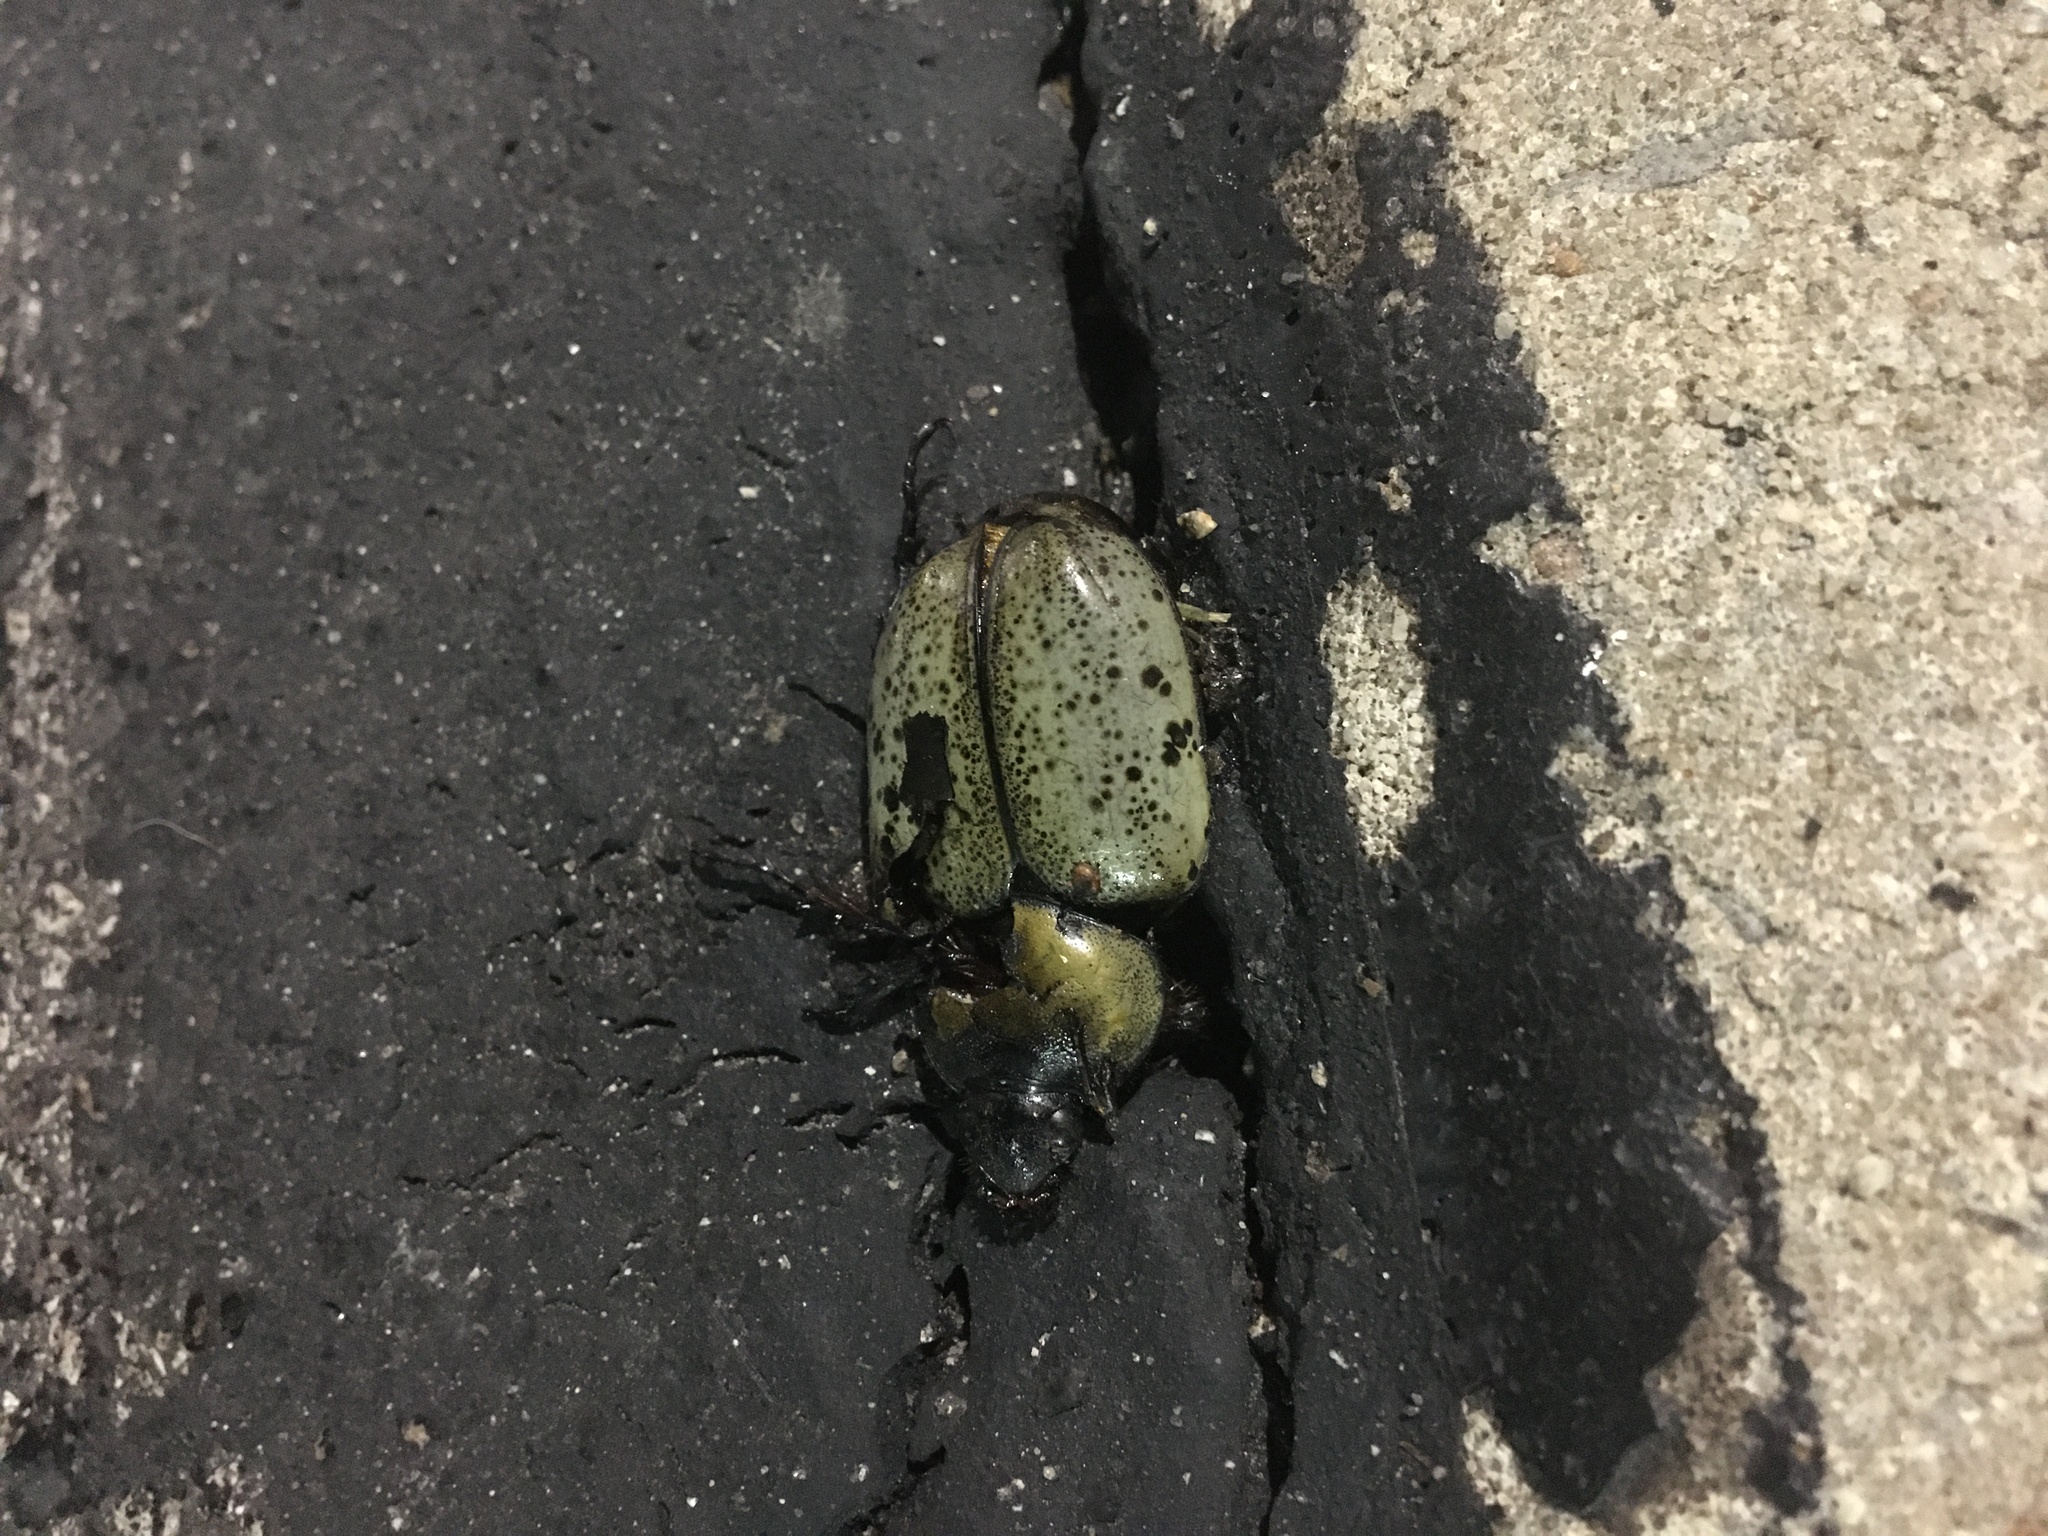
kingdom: Animalia
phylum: Arthropoda
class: Insecta
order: Coleoptera
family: Scarabaeidae
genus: Dynastes
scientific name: Dynastes tityus
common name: Eastern hercules beetle
